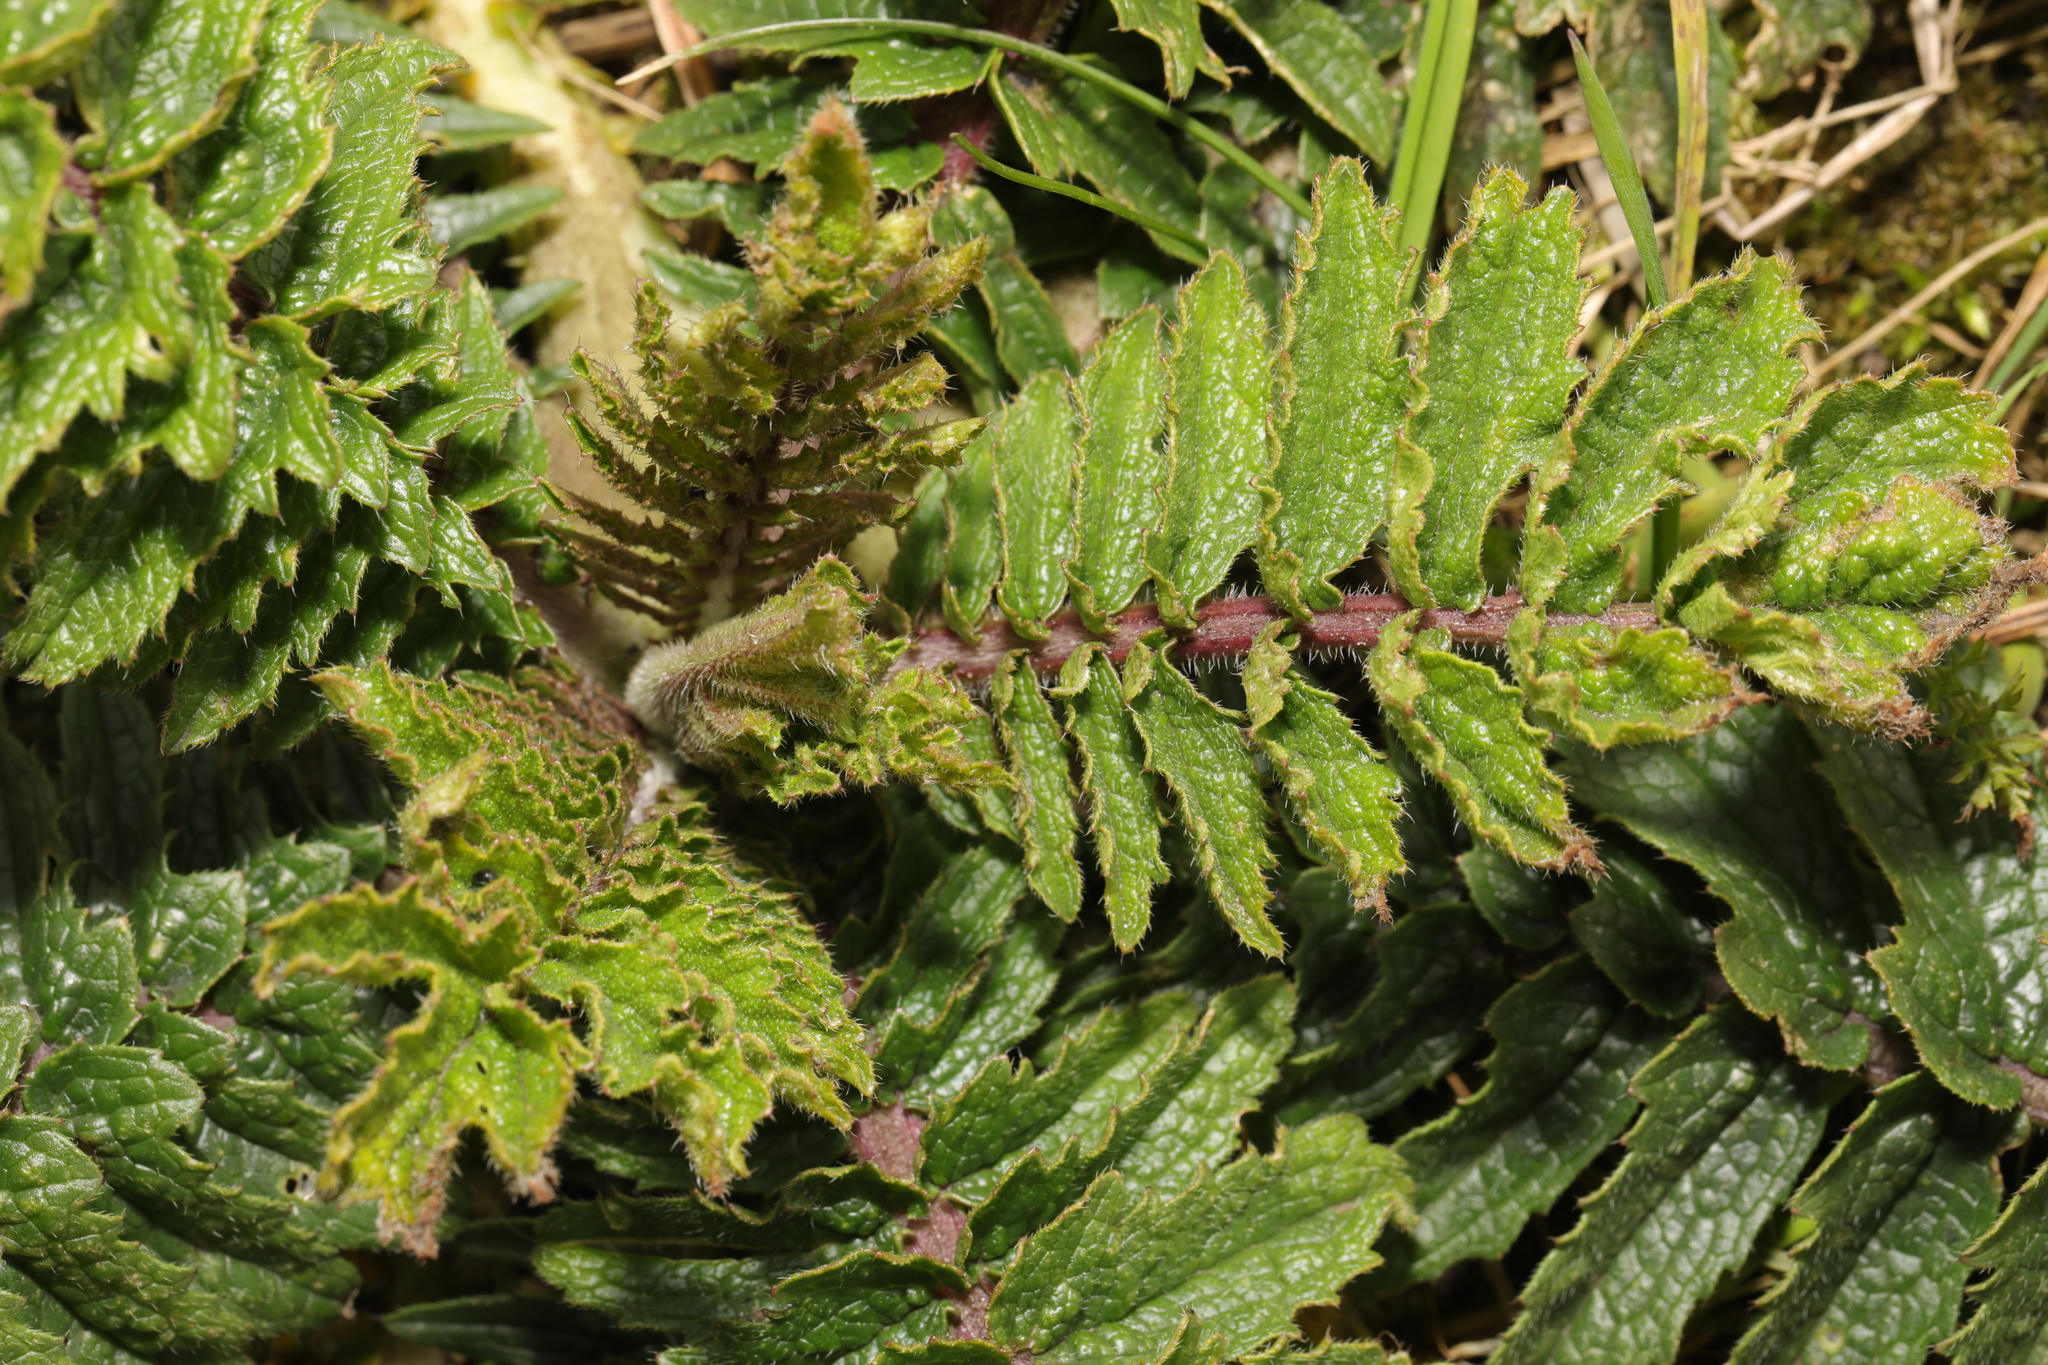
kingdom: Plantae
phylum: Tracheophyta
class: Magnoliopsida
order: Brassicales
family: Brassicaceae
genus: Raphanus
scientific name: Raphanus raphanistrum
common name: Wild radish
